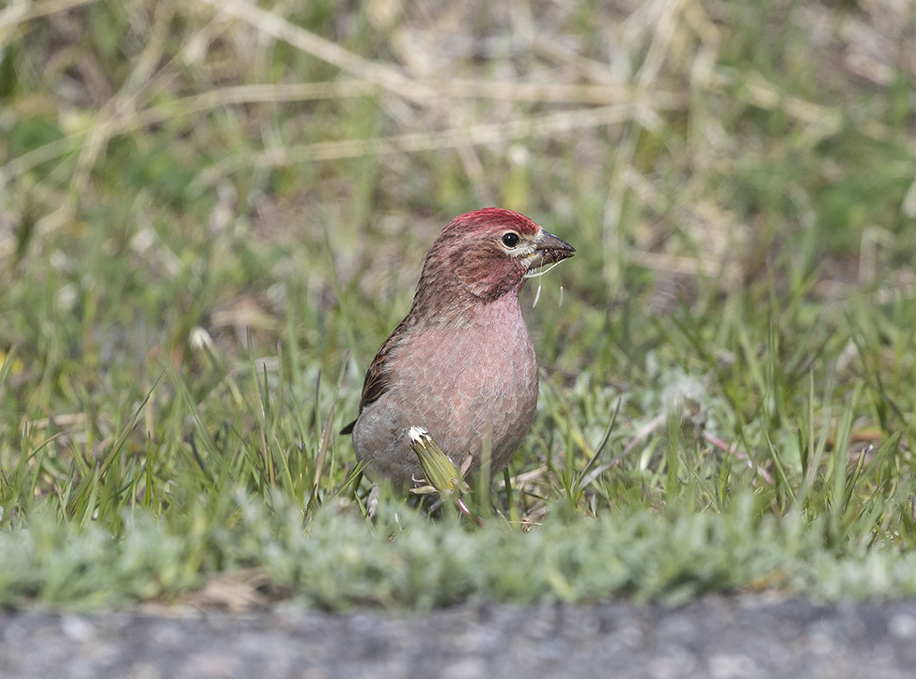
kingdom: Animalia
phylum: Chordata
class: Aves
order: Passeriformes
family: Fringillidae
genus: Haemorhous
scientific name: Haemorhous cassinii
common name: Cassin's finch
